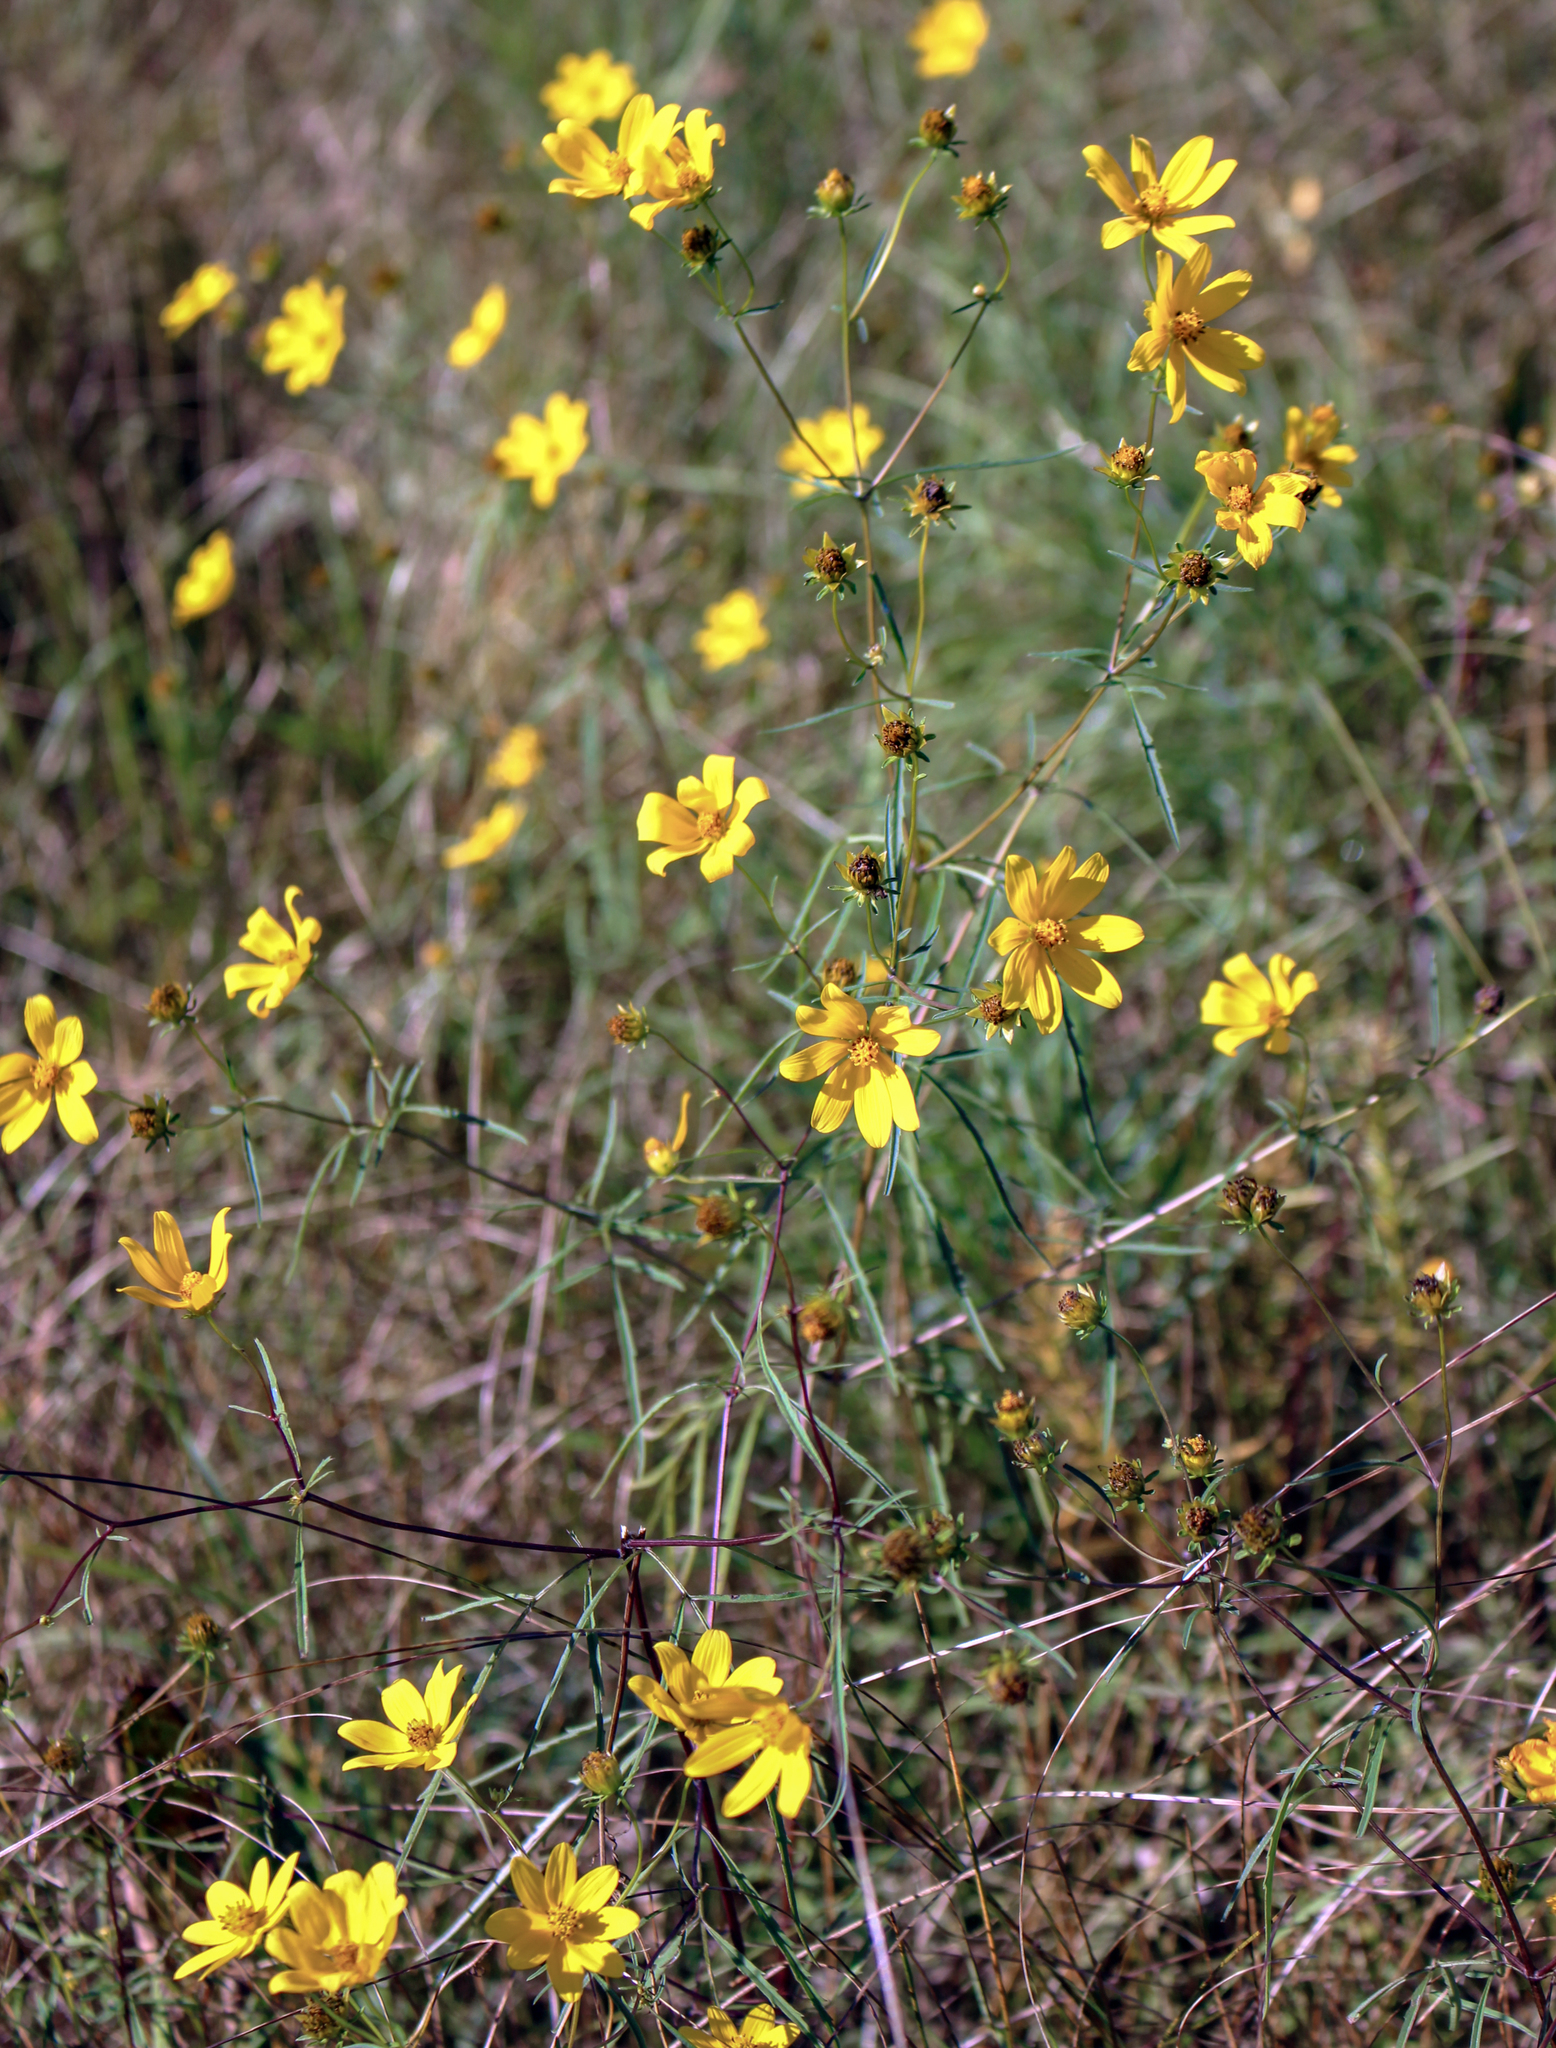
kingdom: Plantae
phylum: Tracheophyta
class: Magnoliopsida
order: Asterales
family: Asteraceae
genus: Bidens
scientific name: Bidens trichosperma
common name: Crowned beggarticks
